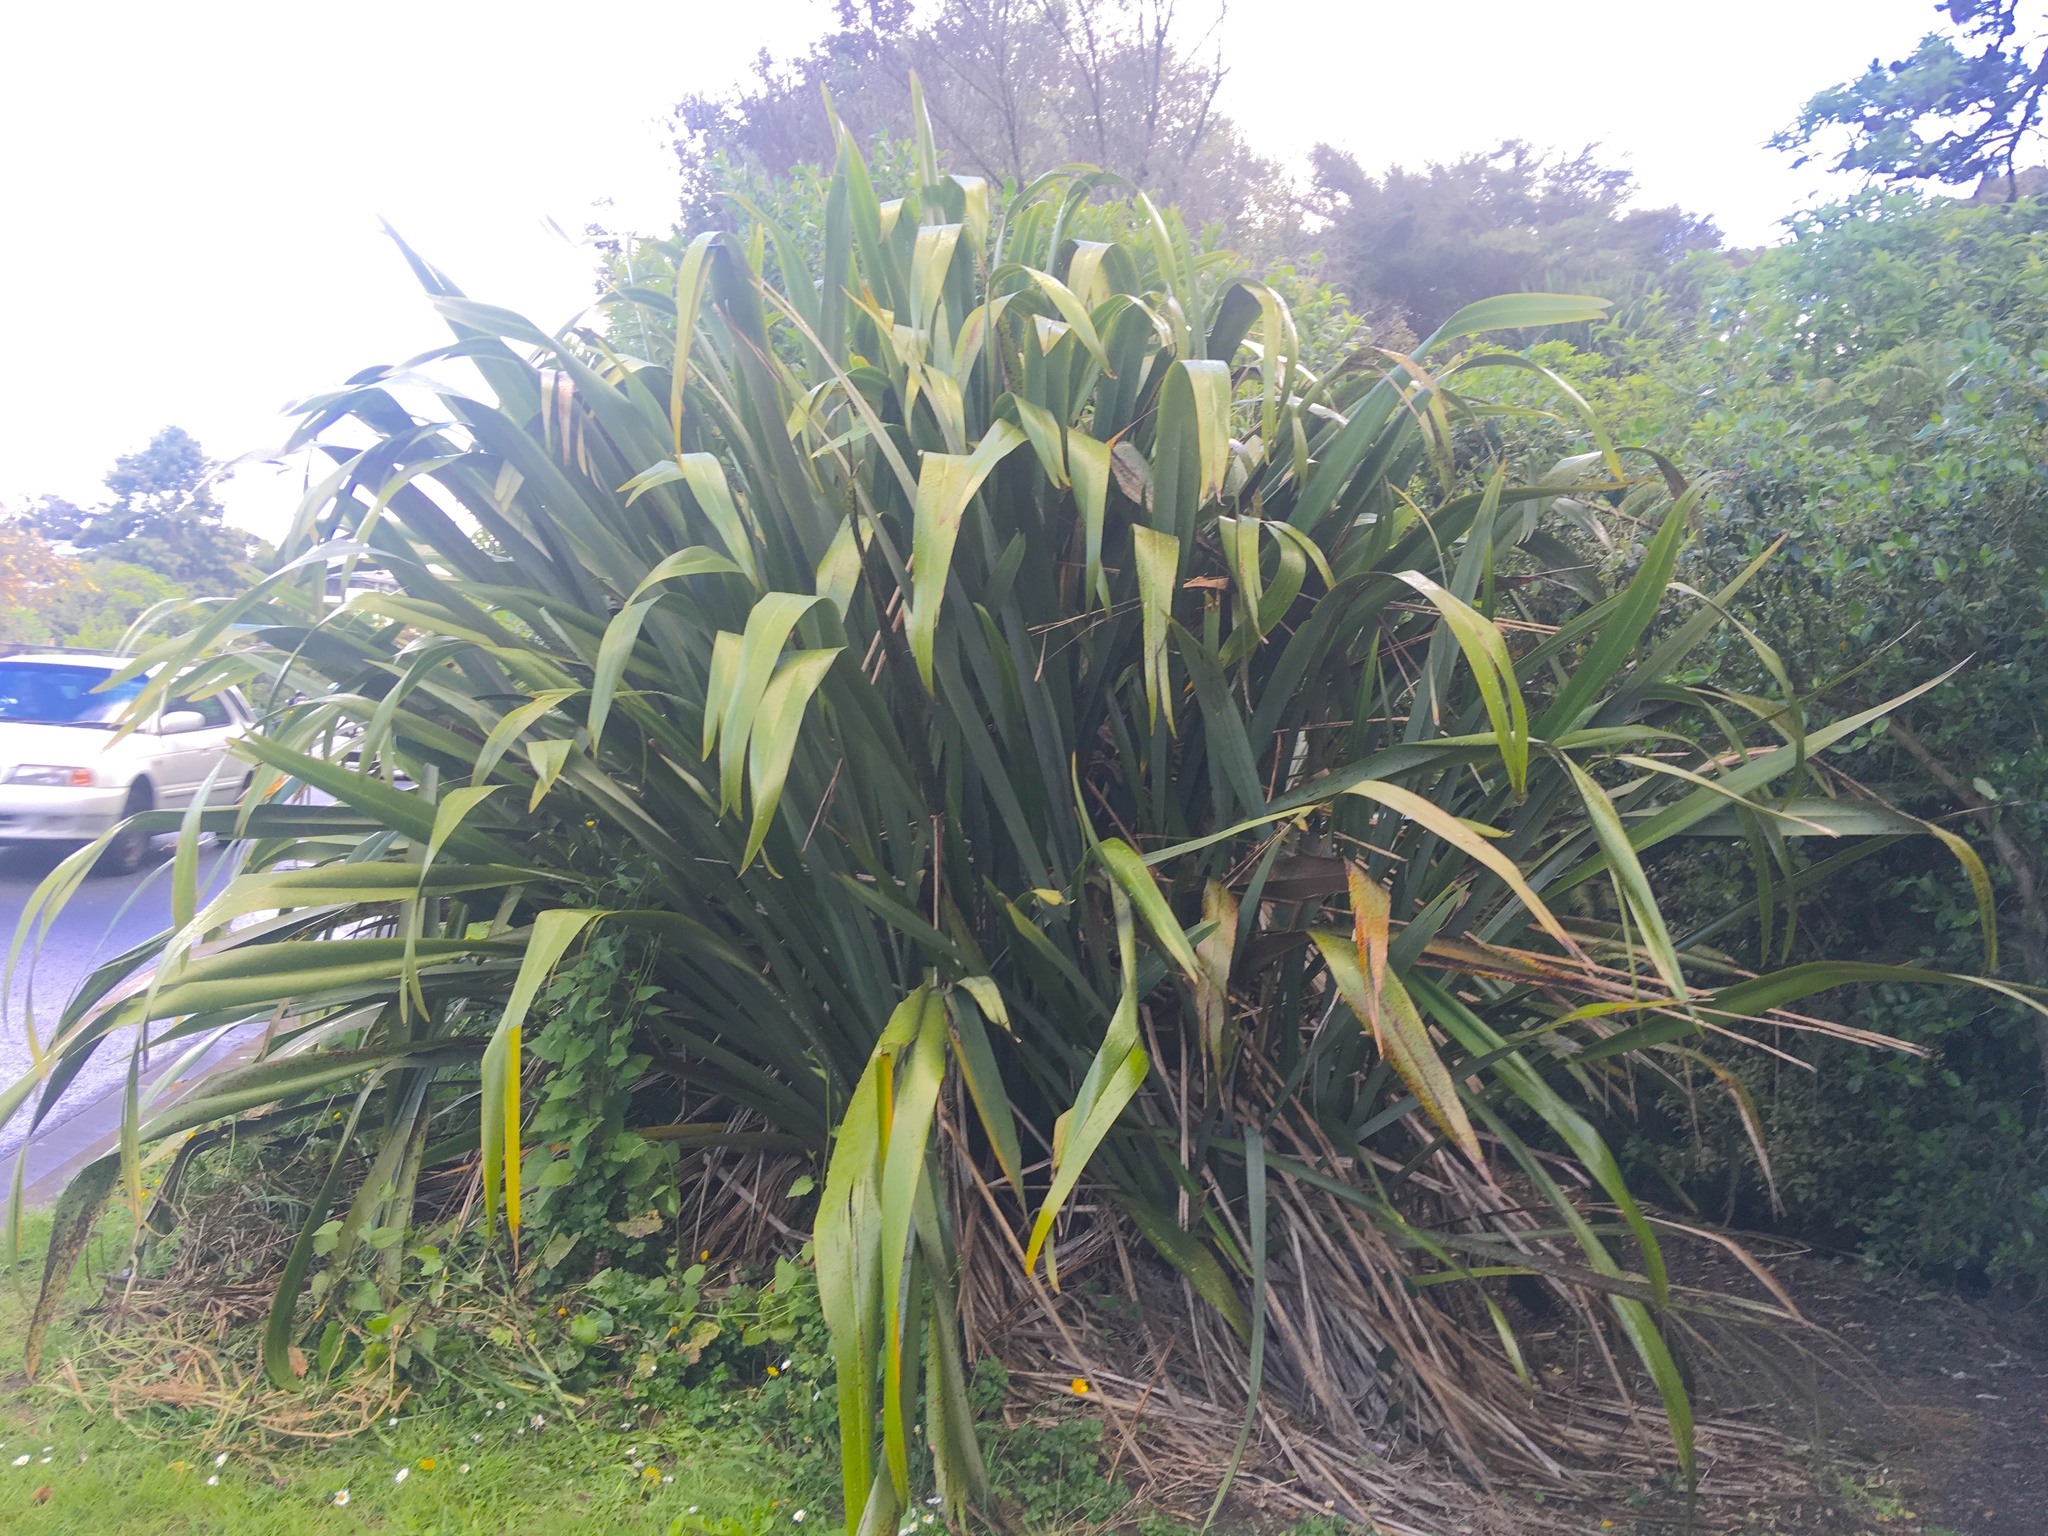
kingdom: Plantae
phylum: Tracheophyta
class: Liliopsida
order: Asparagales
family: Asphodelaceae
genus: Phormium
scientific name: Phormium tenax
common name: New zealand flax
